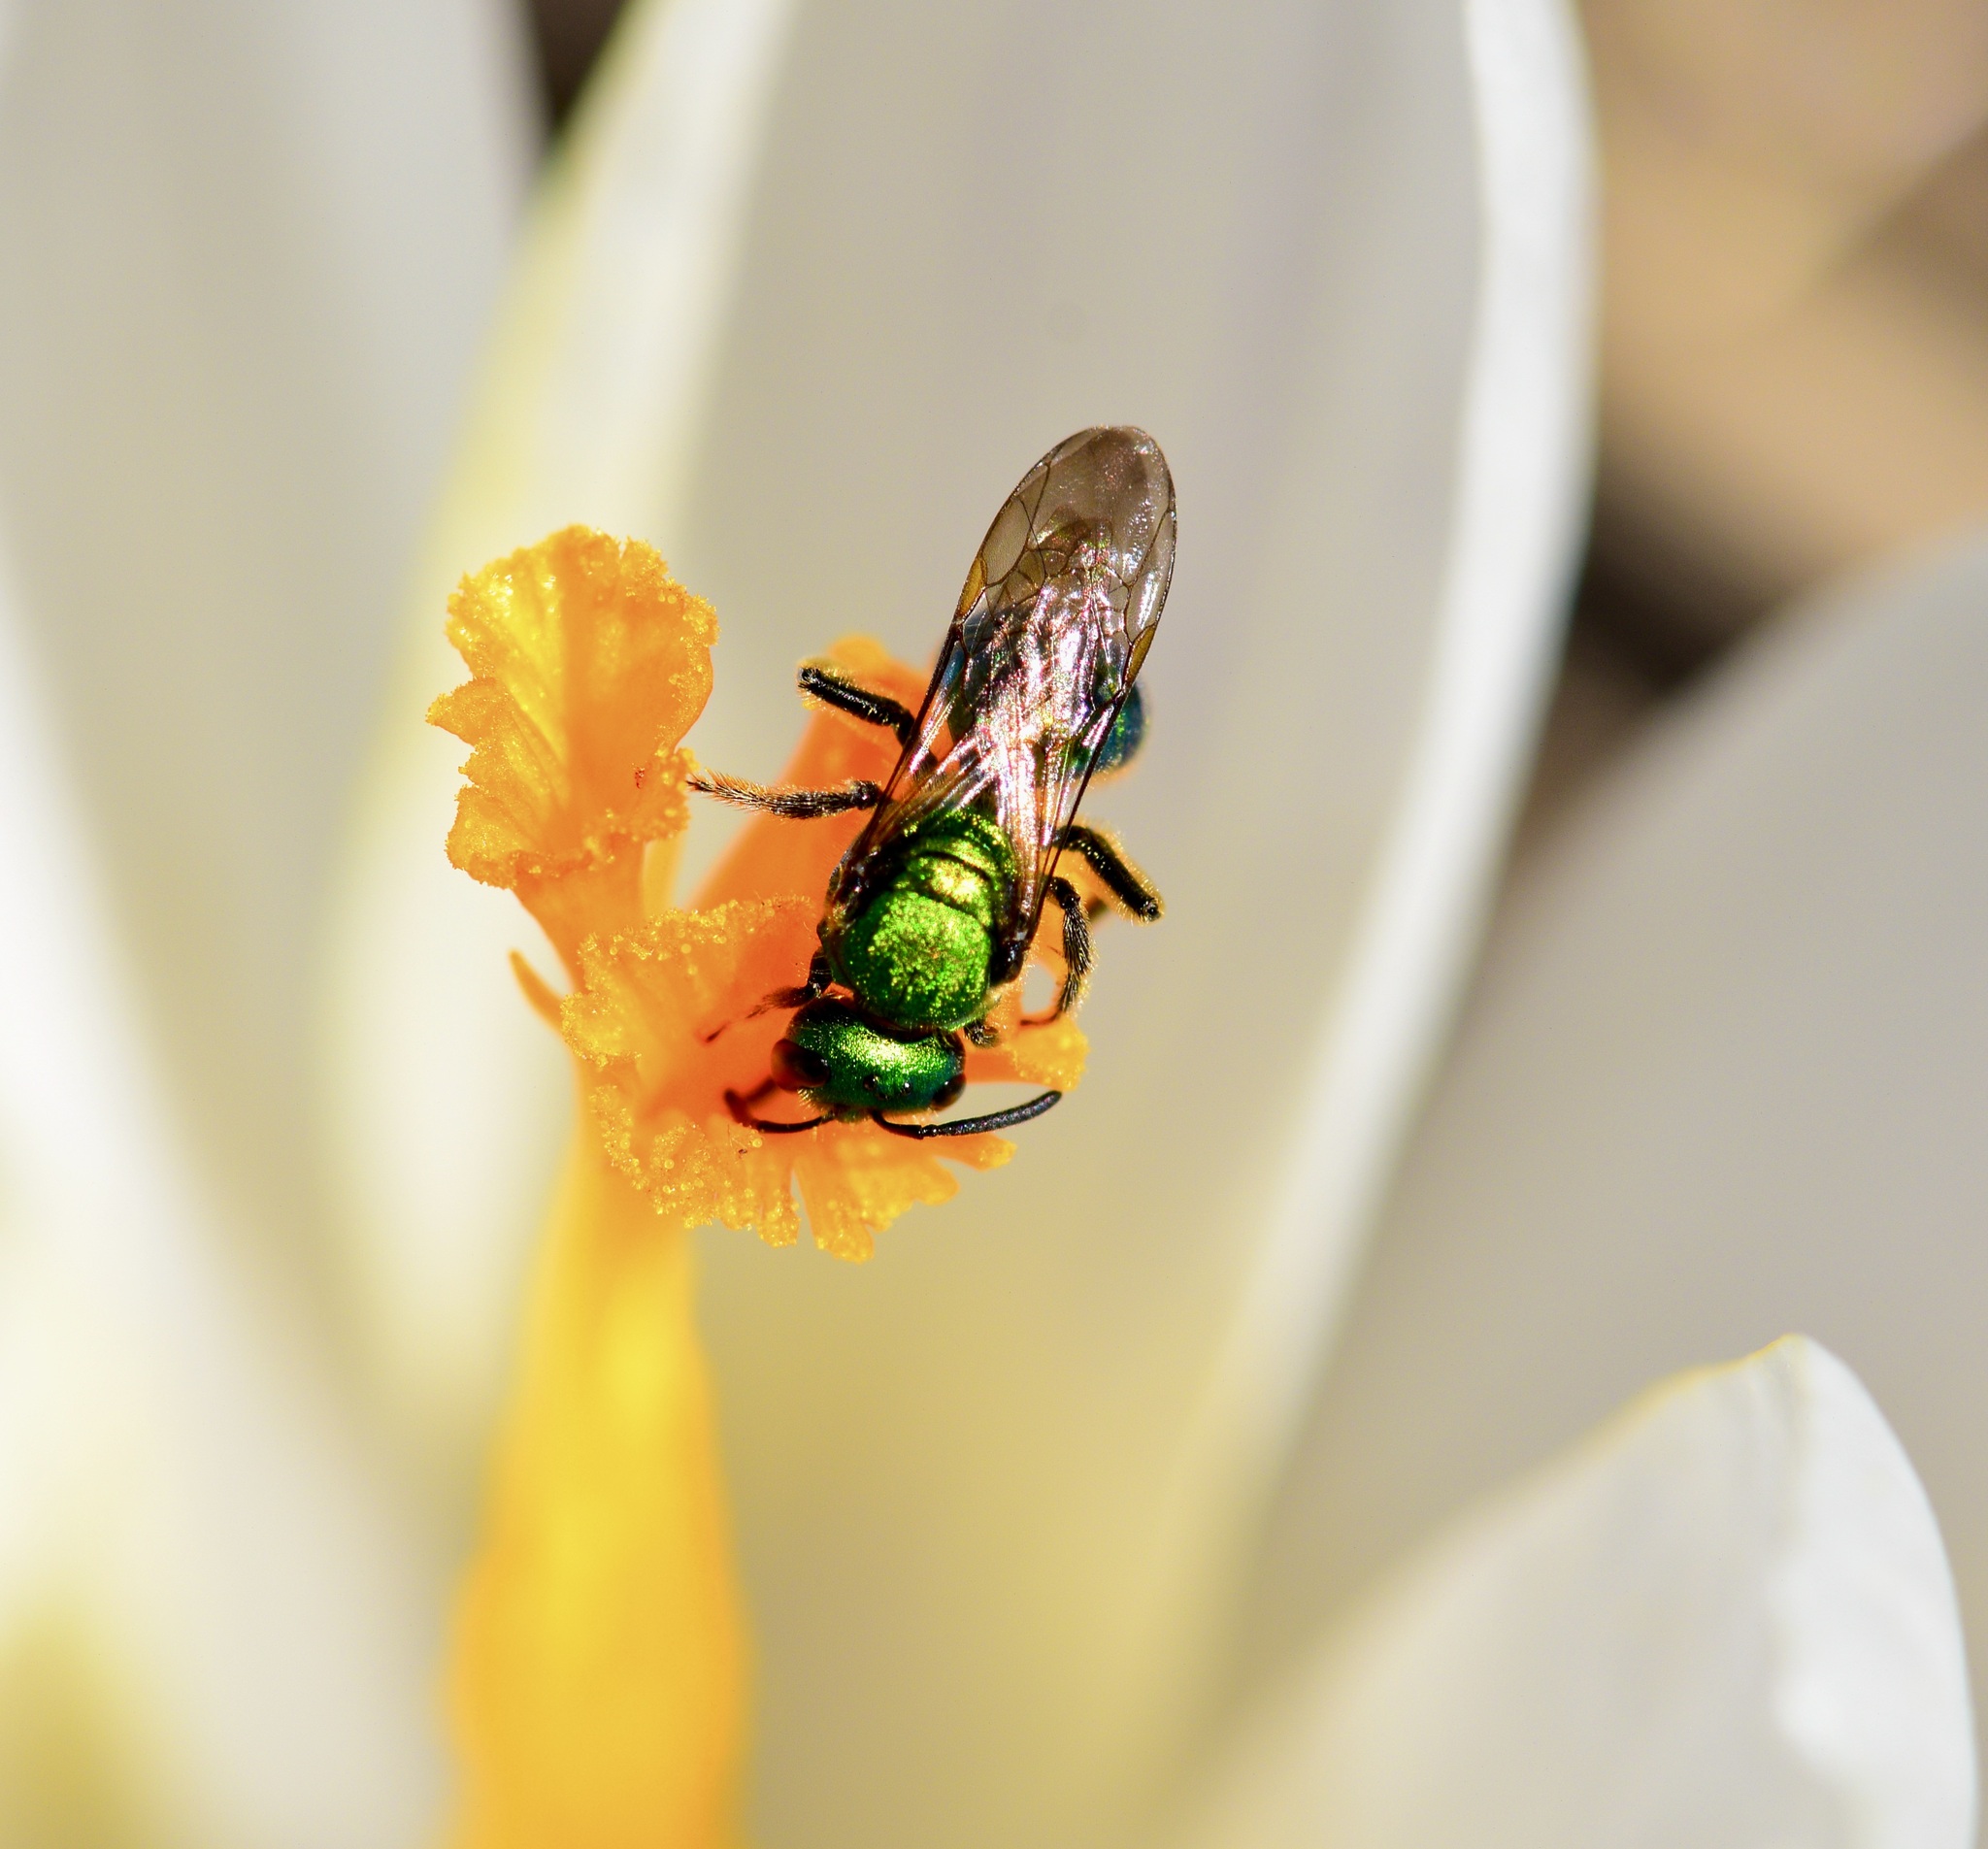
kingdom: Animalia
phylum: Arthropoda
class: Insecta
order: Hymenoptera
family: Halictidae
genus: Augochlora
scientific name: Augochlora pura
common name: Pure green sweat bee
